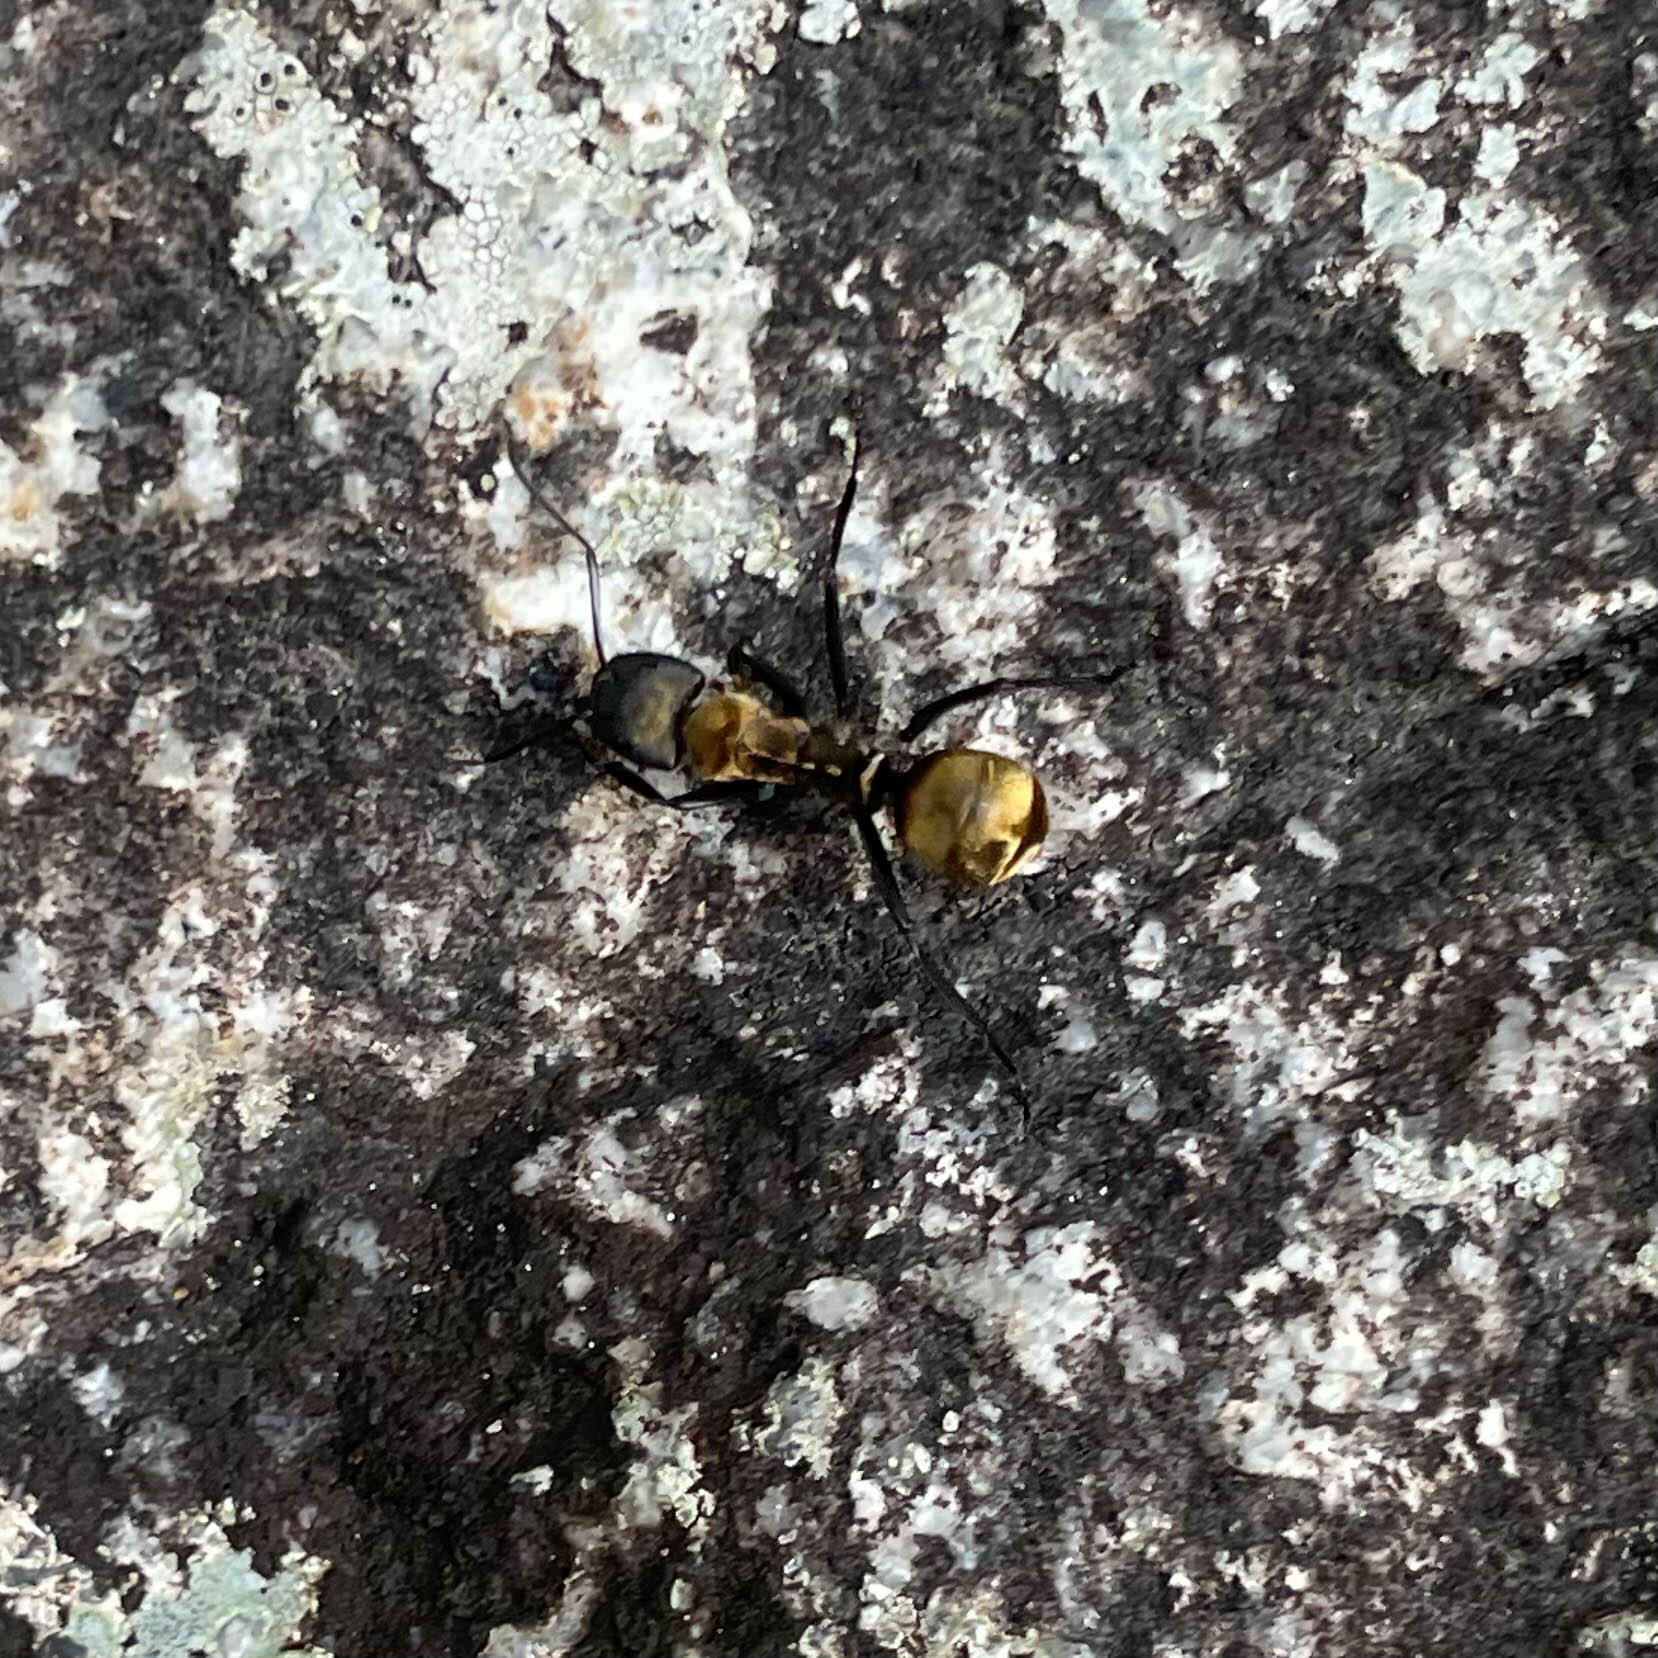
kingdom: Animalia
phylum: Arthropoda
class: Insecta
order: Hymenoptera
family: Formicidae
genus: Camponotus
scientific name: Camponotus sericeiventris
